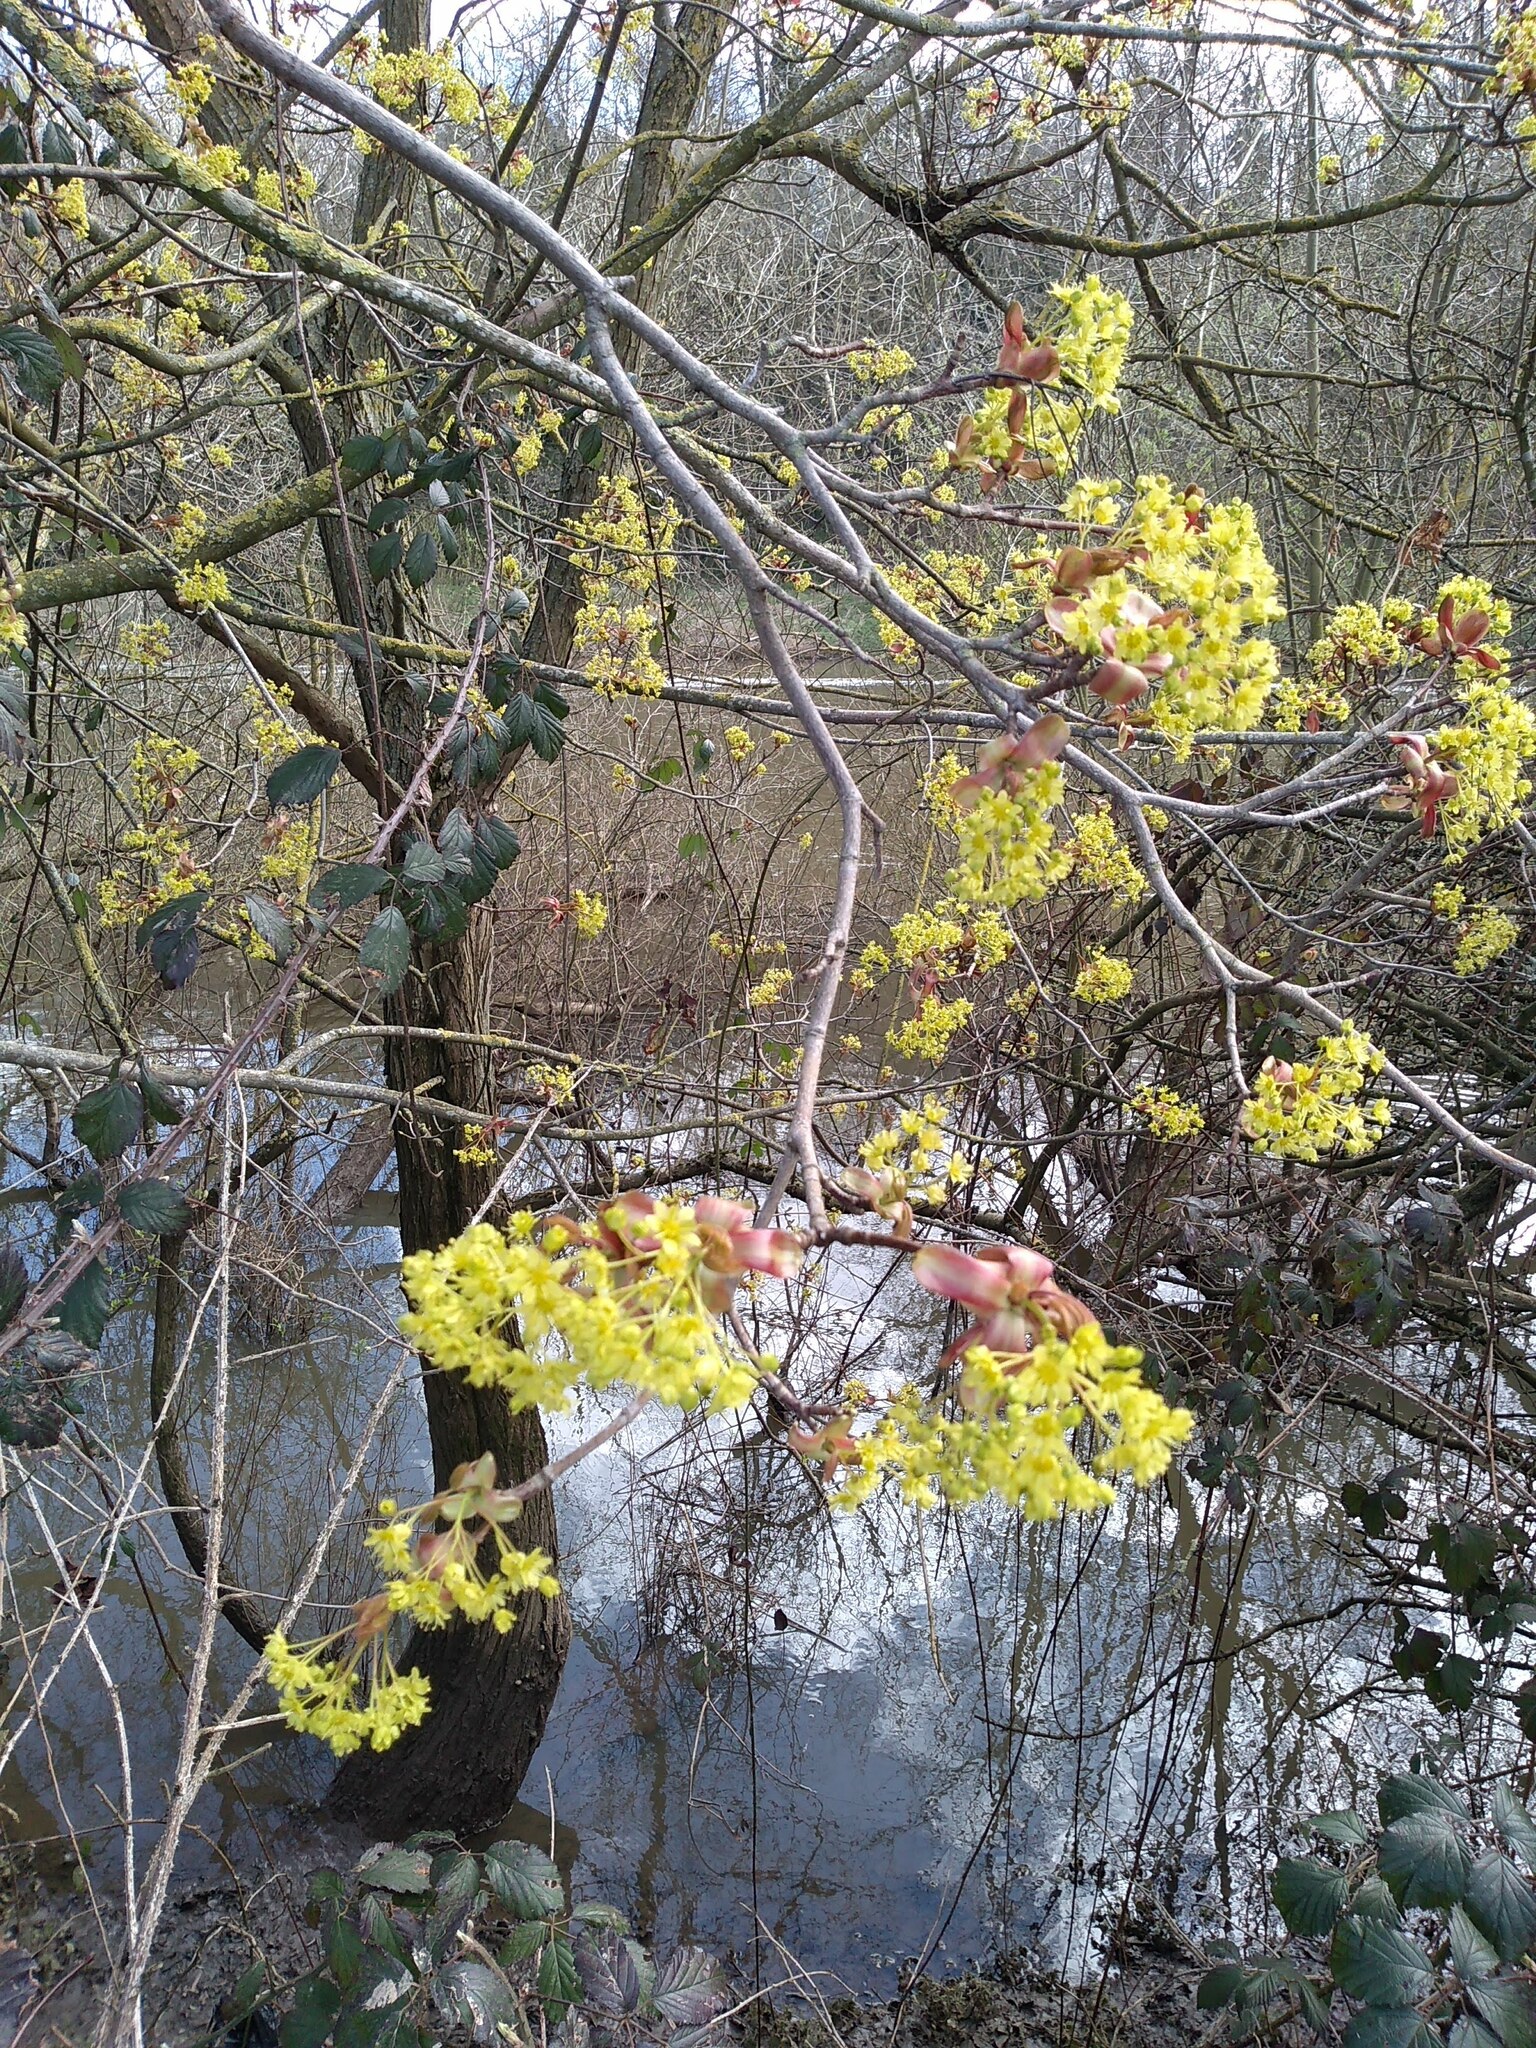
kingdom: Plantae
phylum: Tracheophyta
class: Magnoliopsida
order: Sapindales
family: Sapindaceae
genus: Acer
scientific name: Acer platanoides
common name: Norway maple
